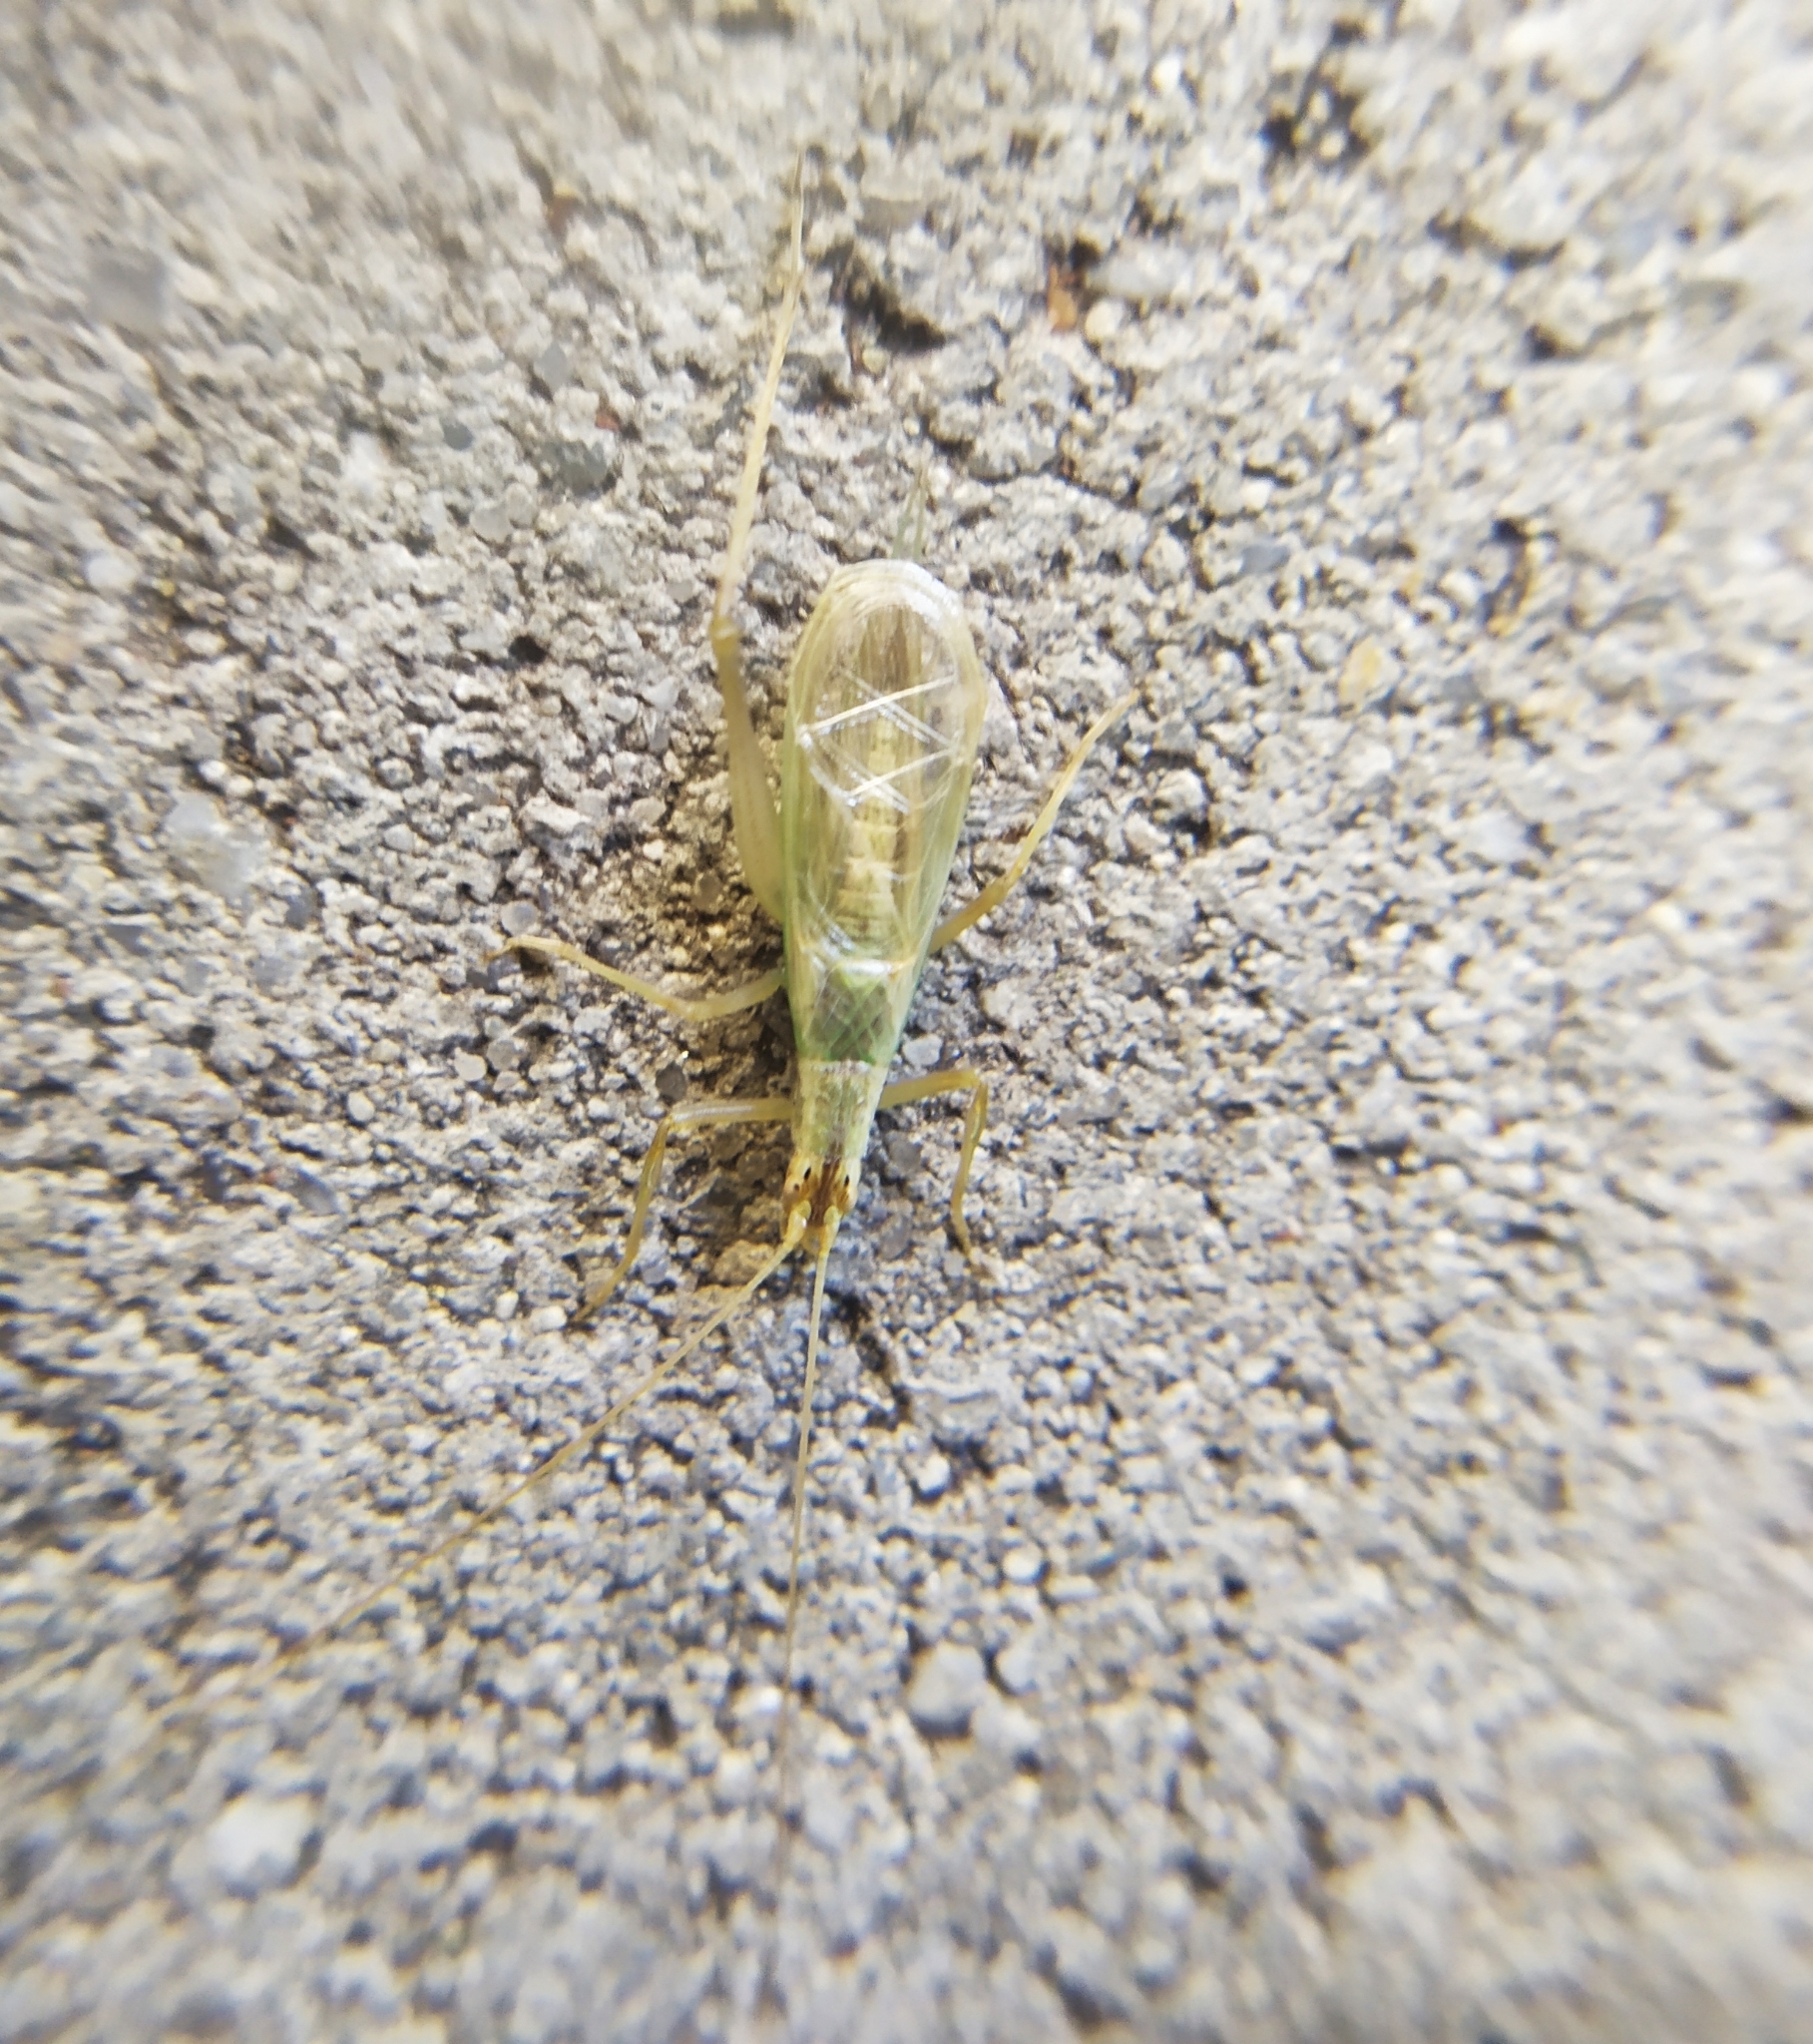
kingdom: Animalia
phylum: Arthropoda
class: Insecta
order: Orthoptera
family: Gryllidae
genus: Oecanthus
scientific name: Oecanthus pellucens
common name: Tree-cricket
